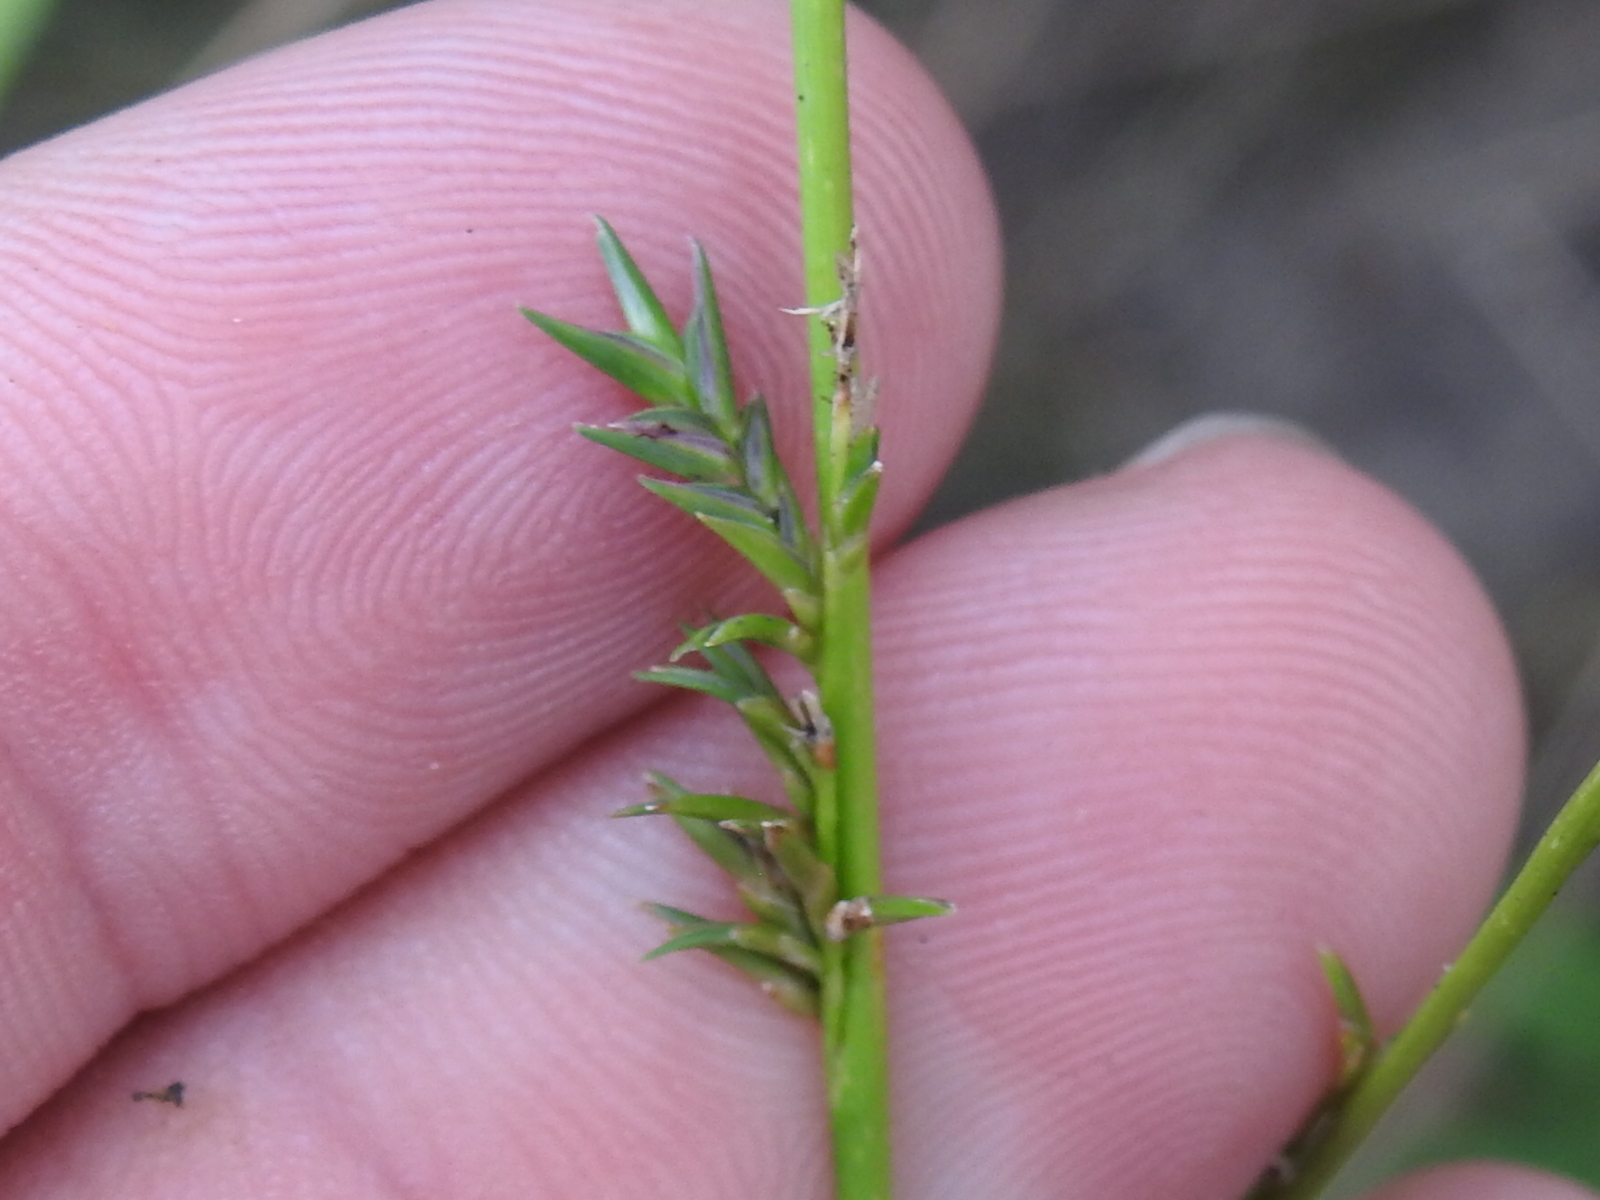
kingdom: Plantae
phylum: Tracheophyta
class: Liliopsida
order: Poales
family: Poaceae
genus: Chasmanthium
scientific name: Chasmanthium laxum
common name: Slender chasmanthium
